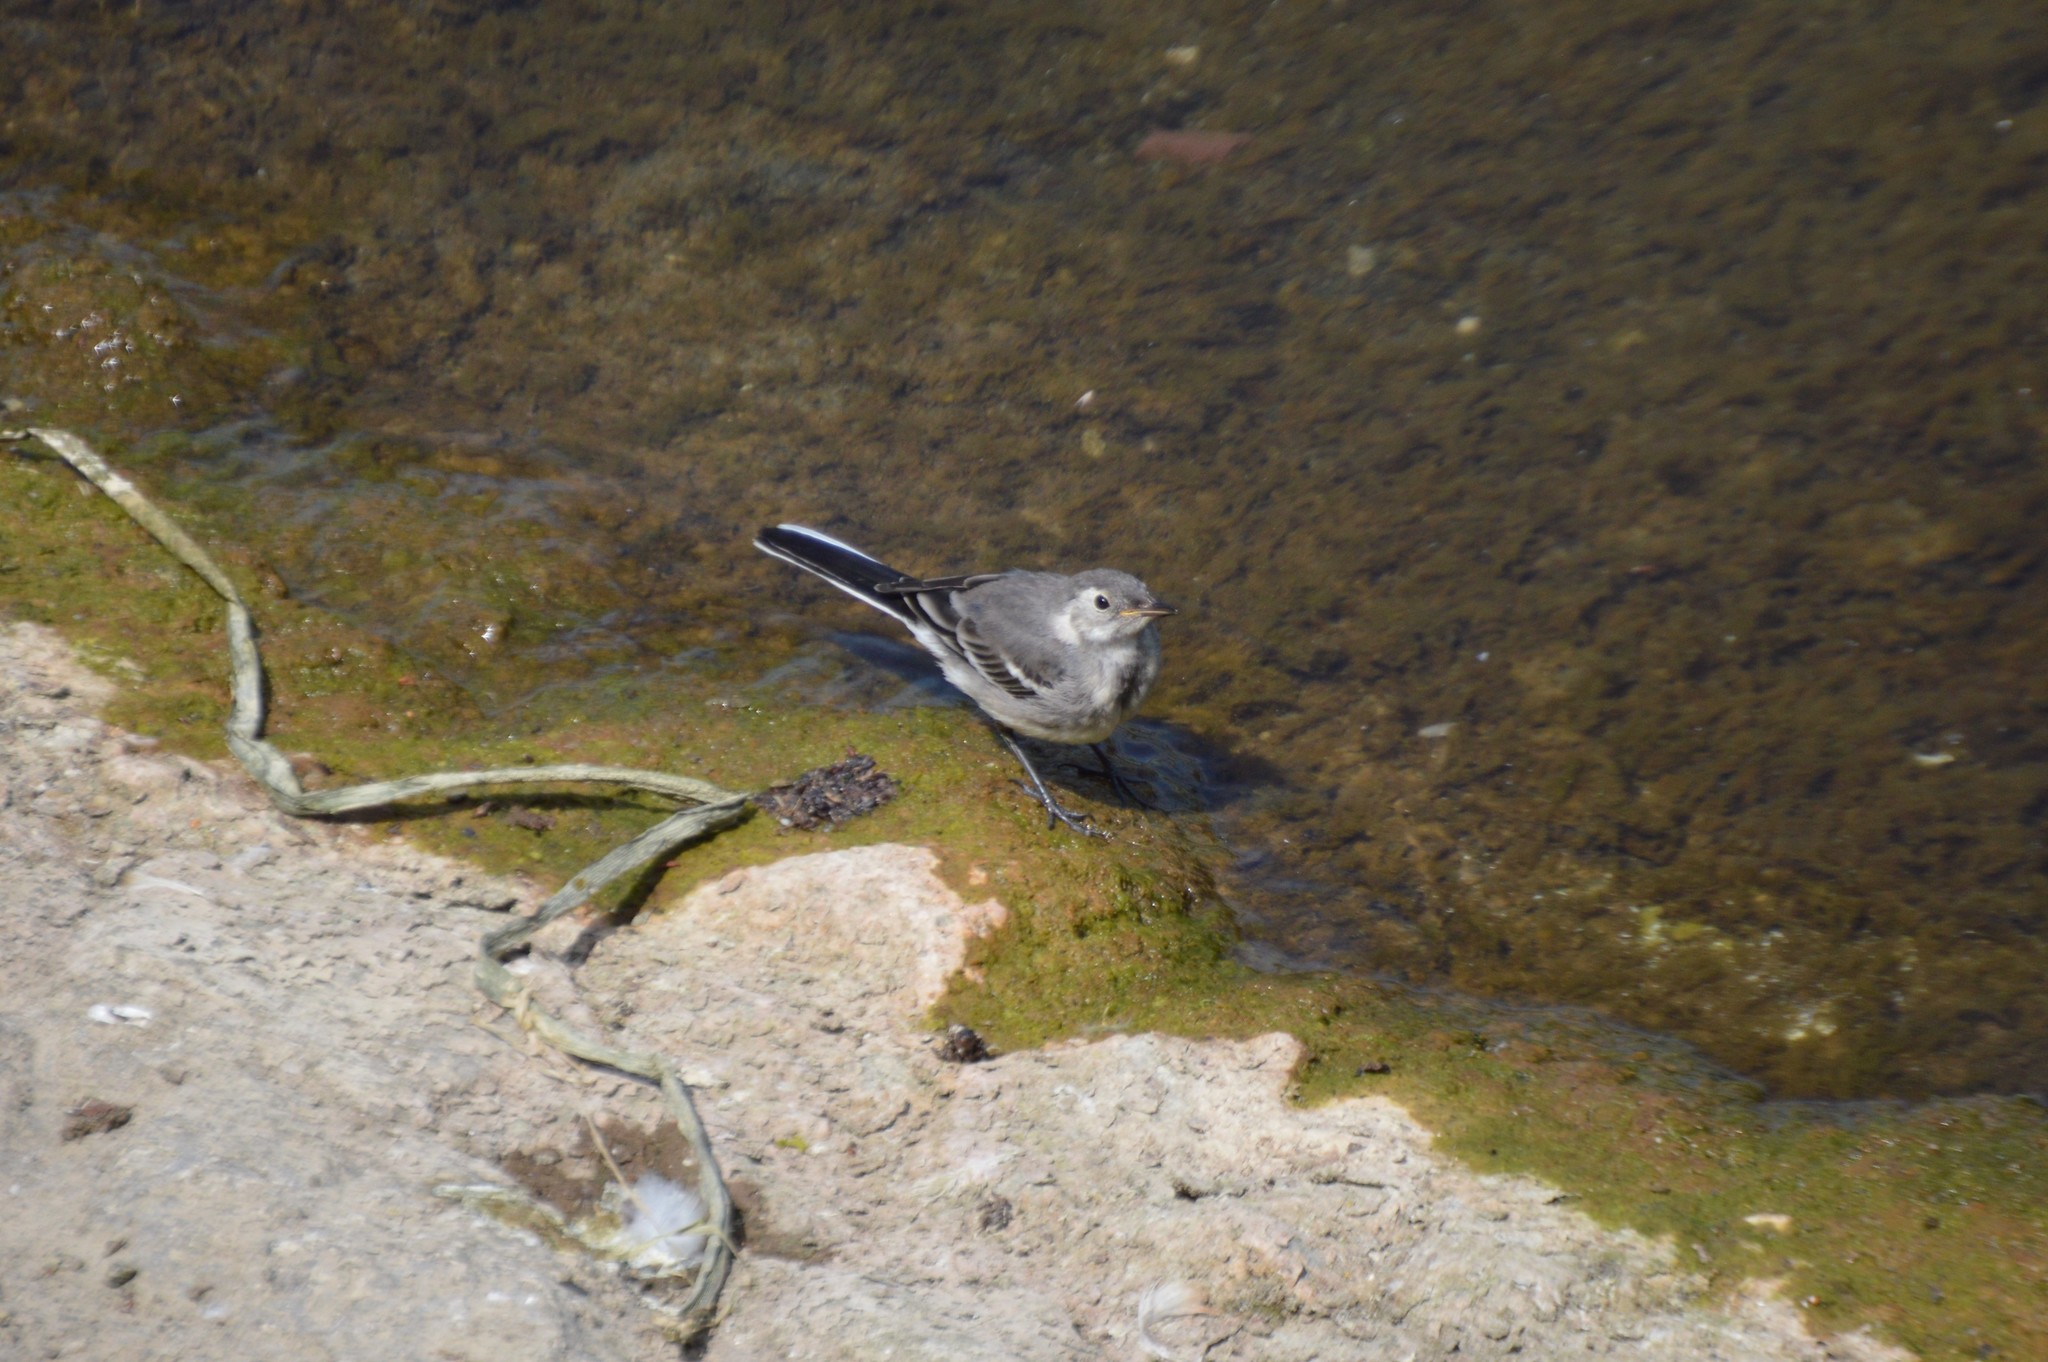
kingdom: Animalia
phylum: Chordata
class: Aves
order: Passeriformes
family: Motacillidae
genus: Motacilla
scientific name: Motacilla alba
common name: White wagtail
